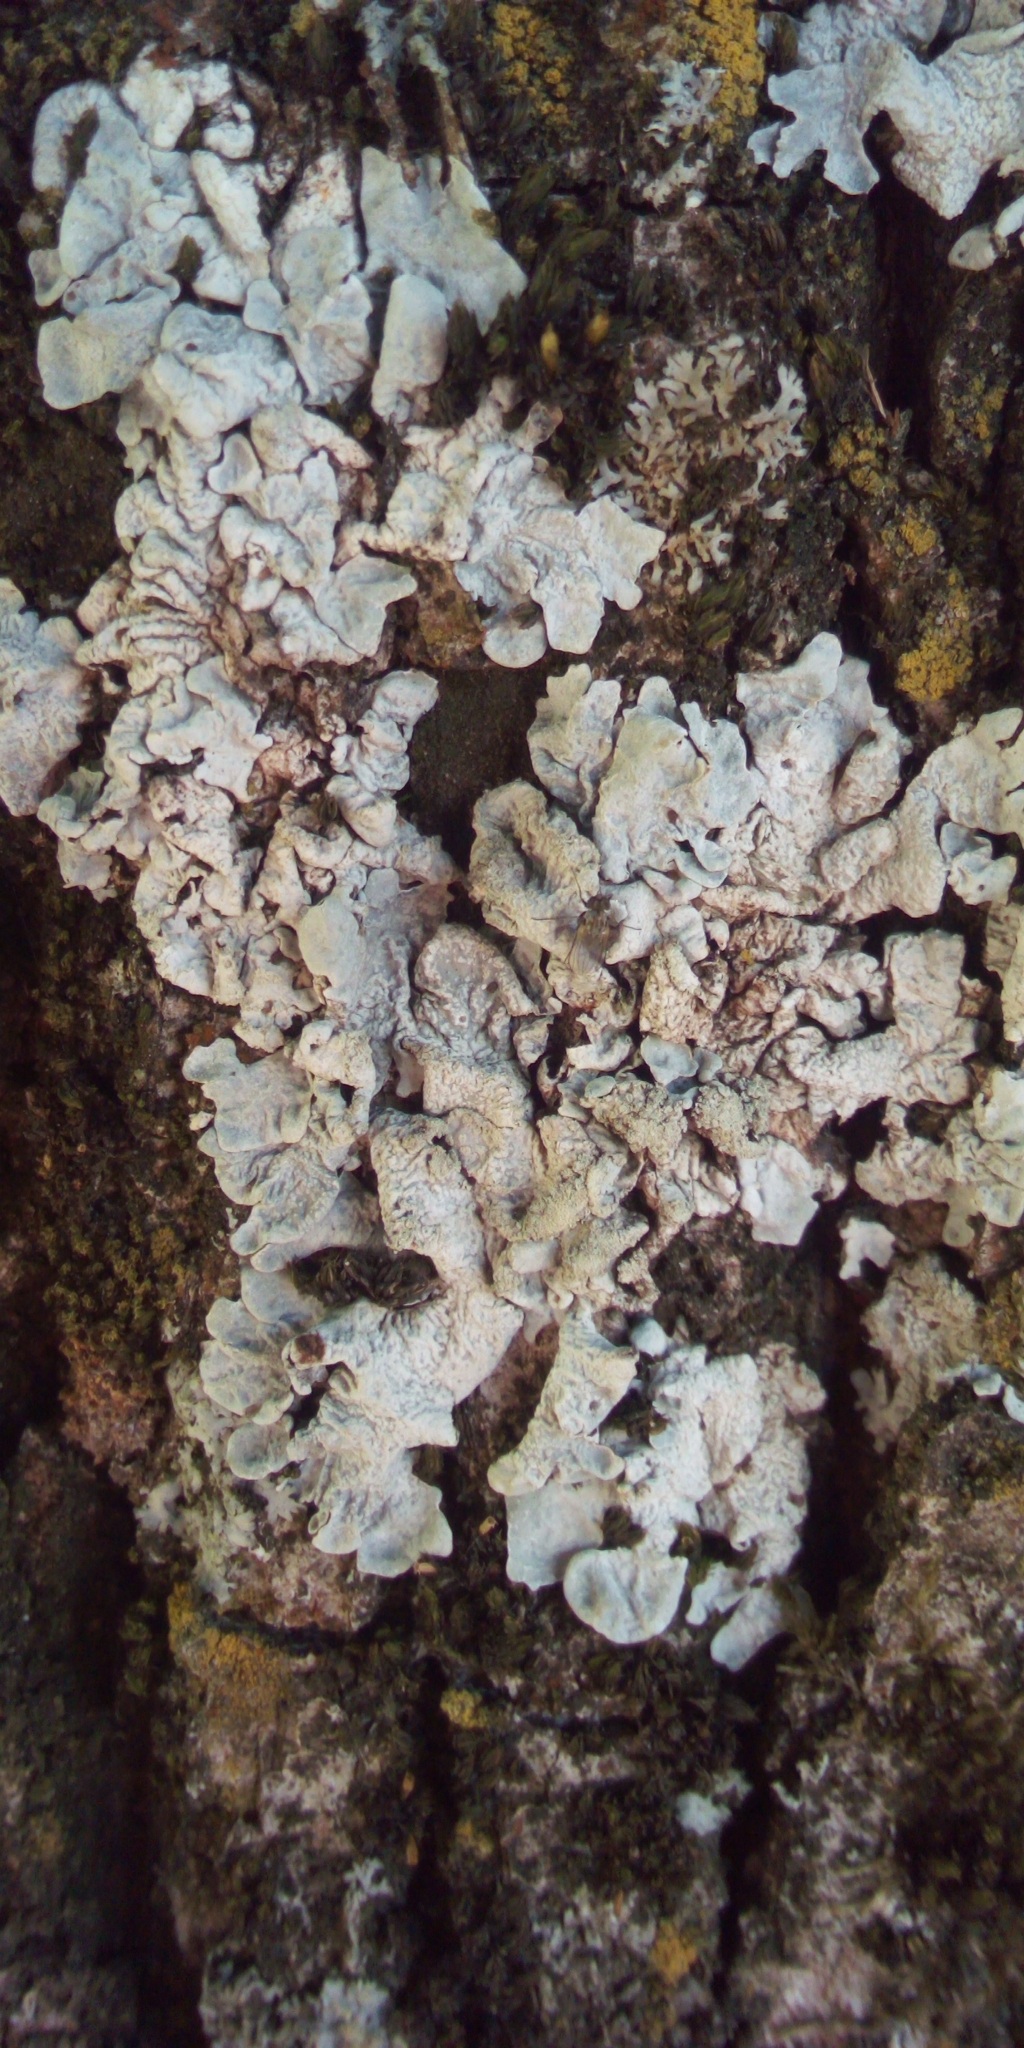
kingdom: Fungi
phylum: Ascomycota
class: Lecanoromycetes
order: Lecanorales
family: Parmeliaceae
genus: Parmelia
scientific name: Parmelia sulcata
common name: Netted shield lichen
